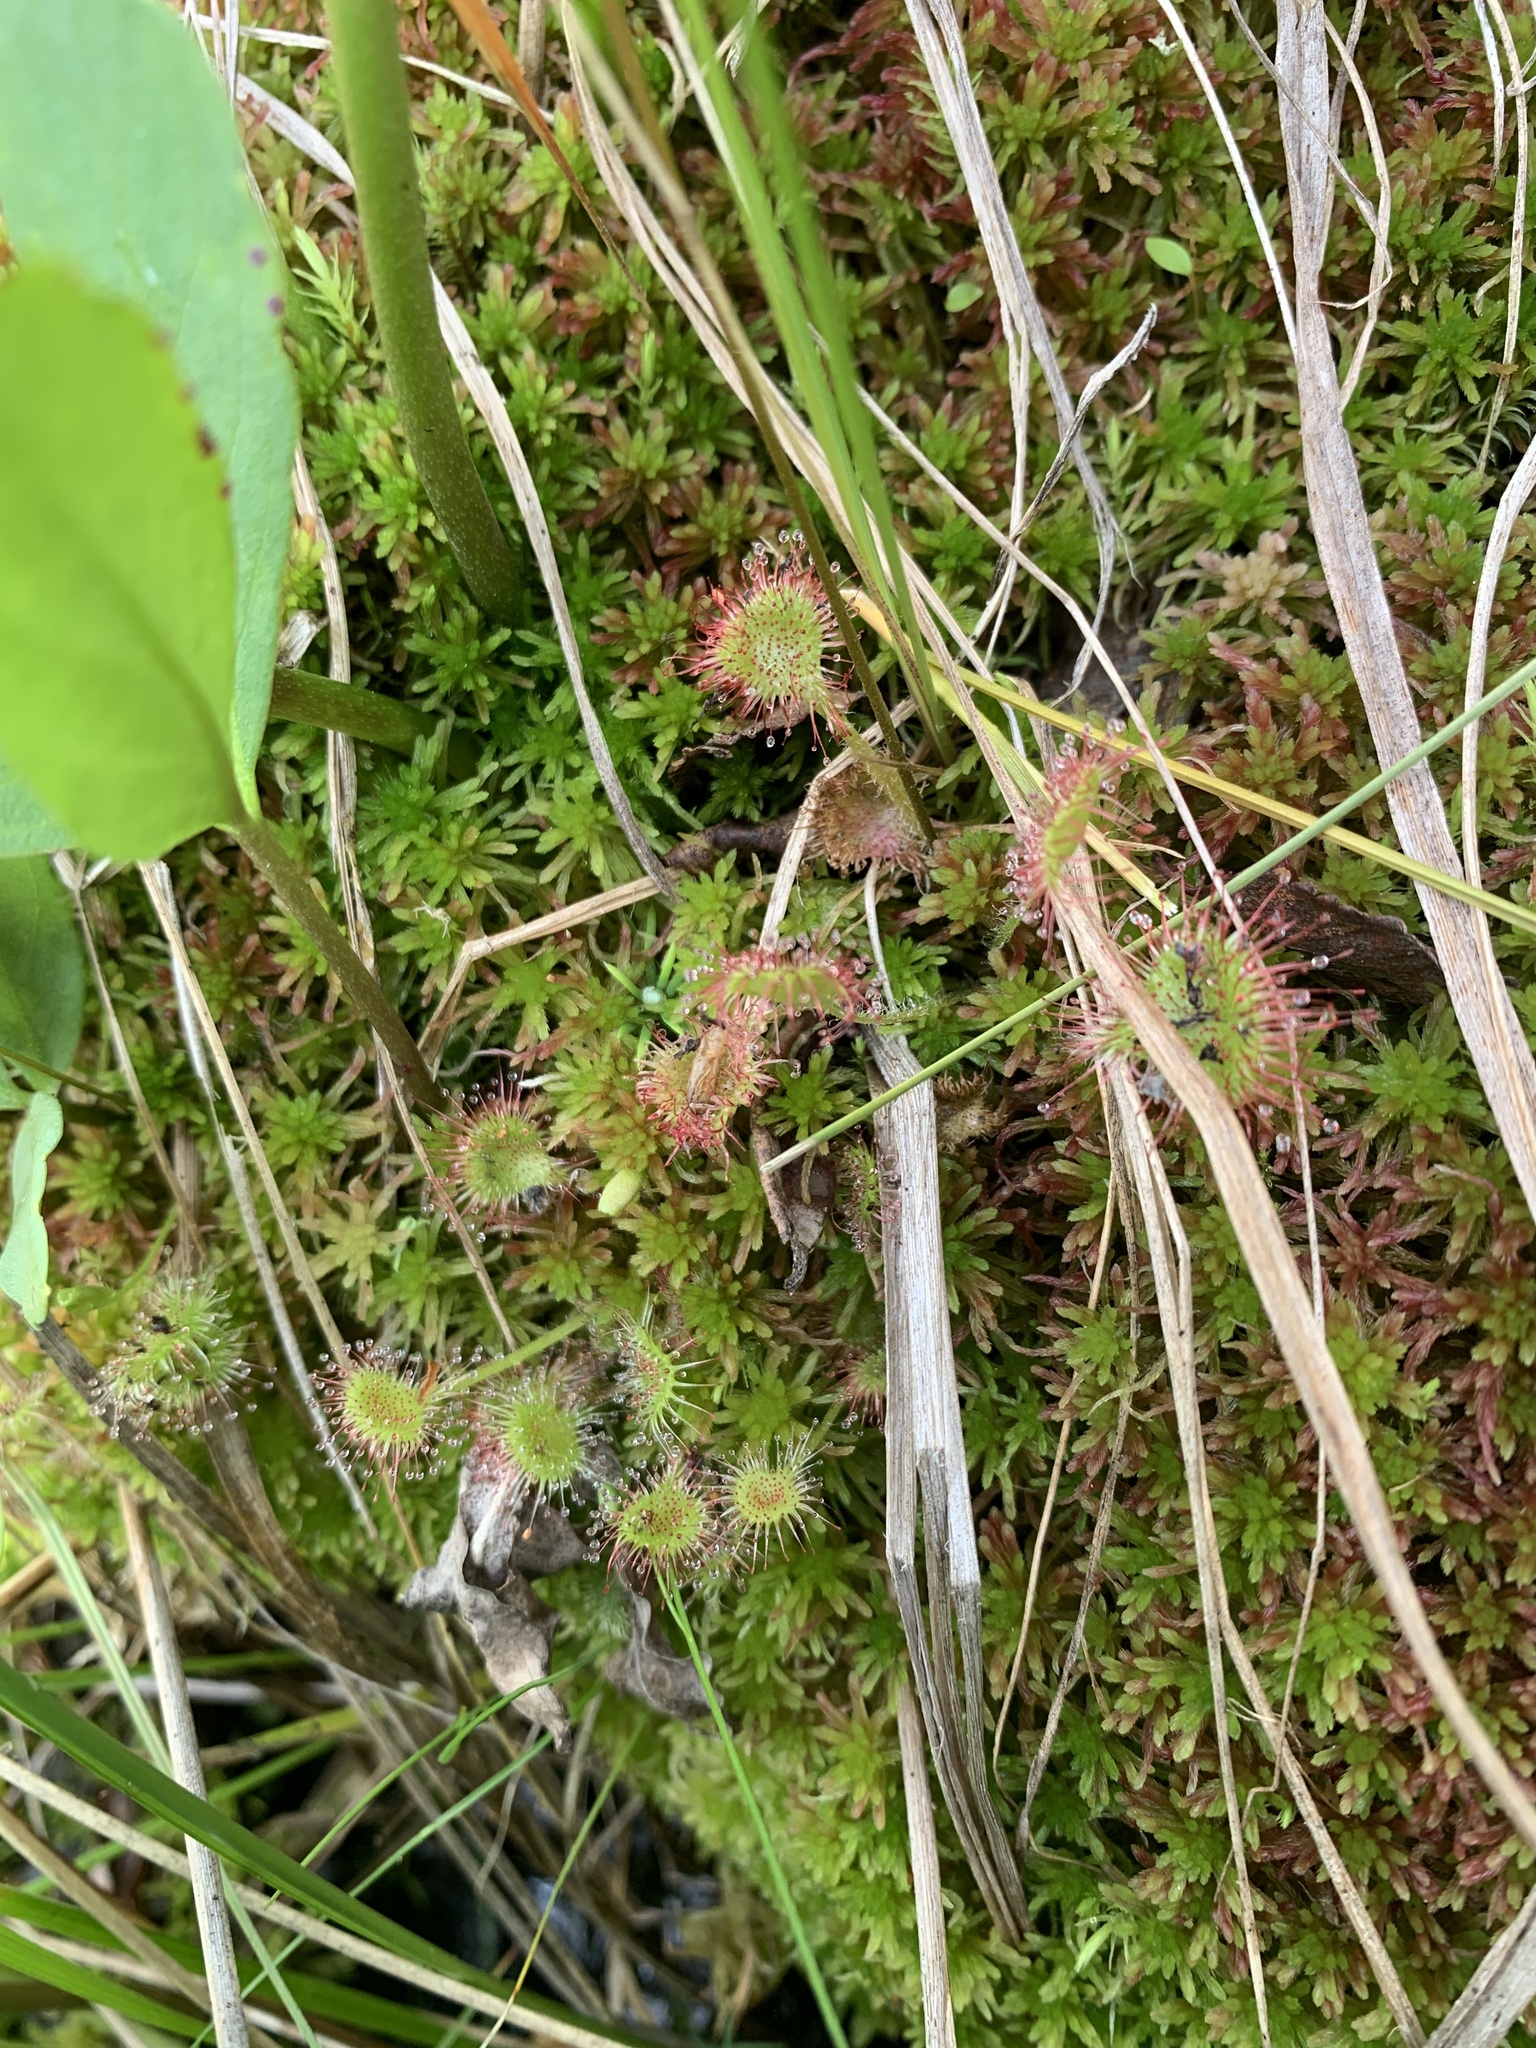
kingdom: Plantae
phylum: Tracheophyta
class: Magnoliopsida
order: Caryophyllales
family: Droseraceae
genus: Drosera
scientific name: Drosera rotundifolia
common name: Round-leaved sundew
